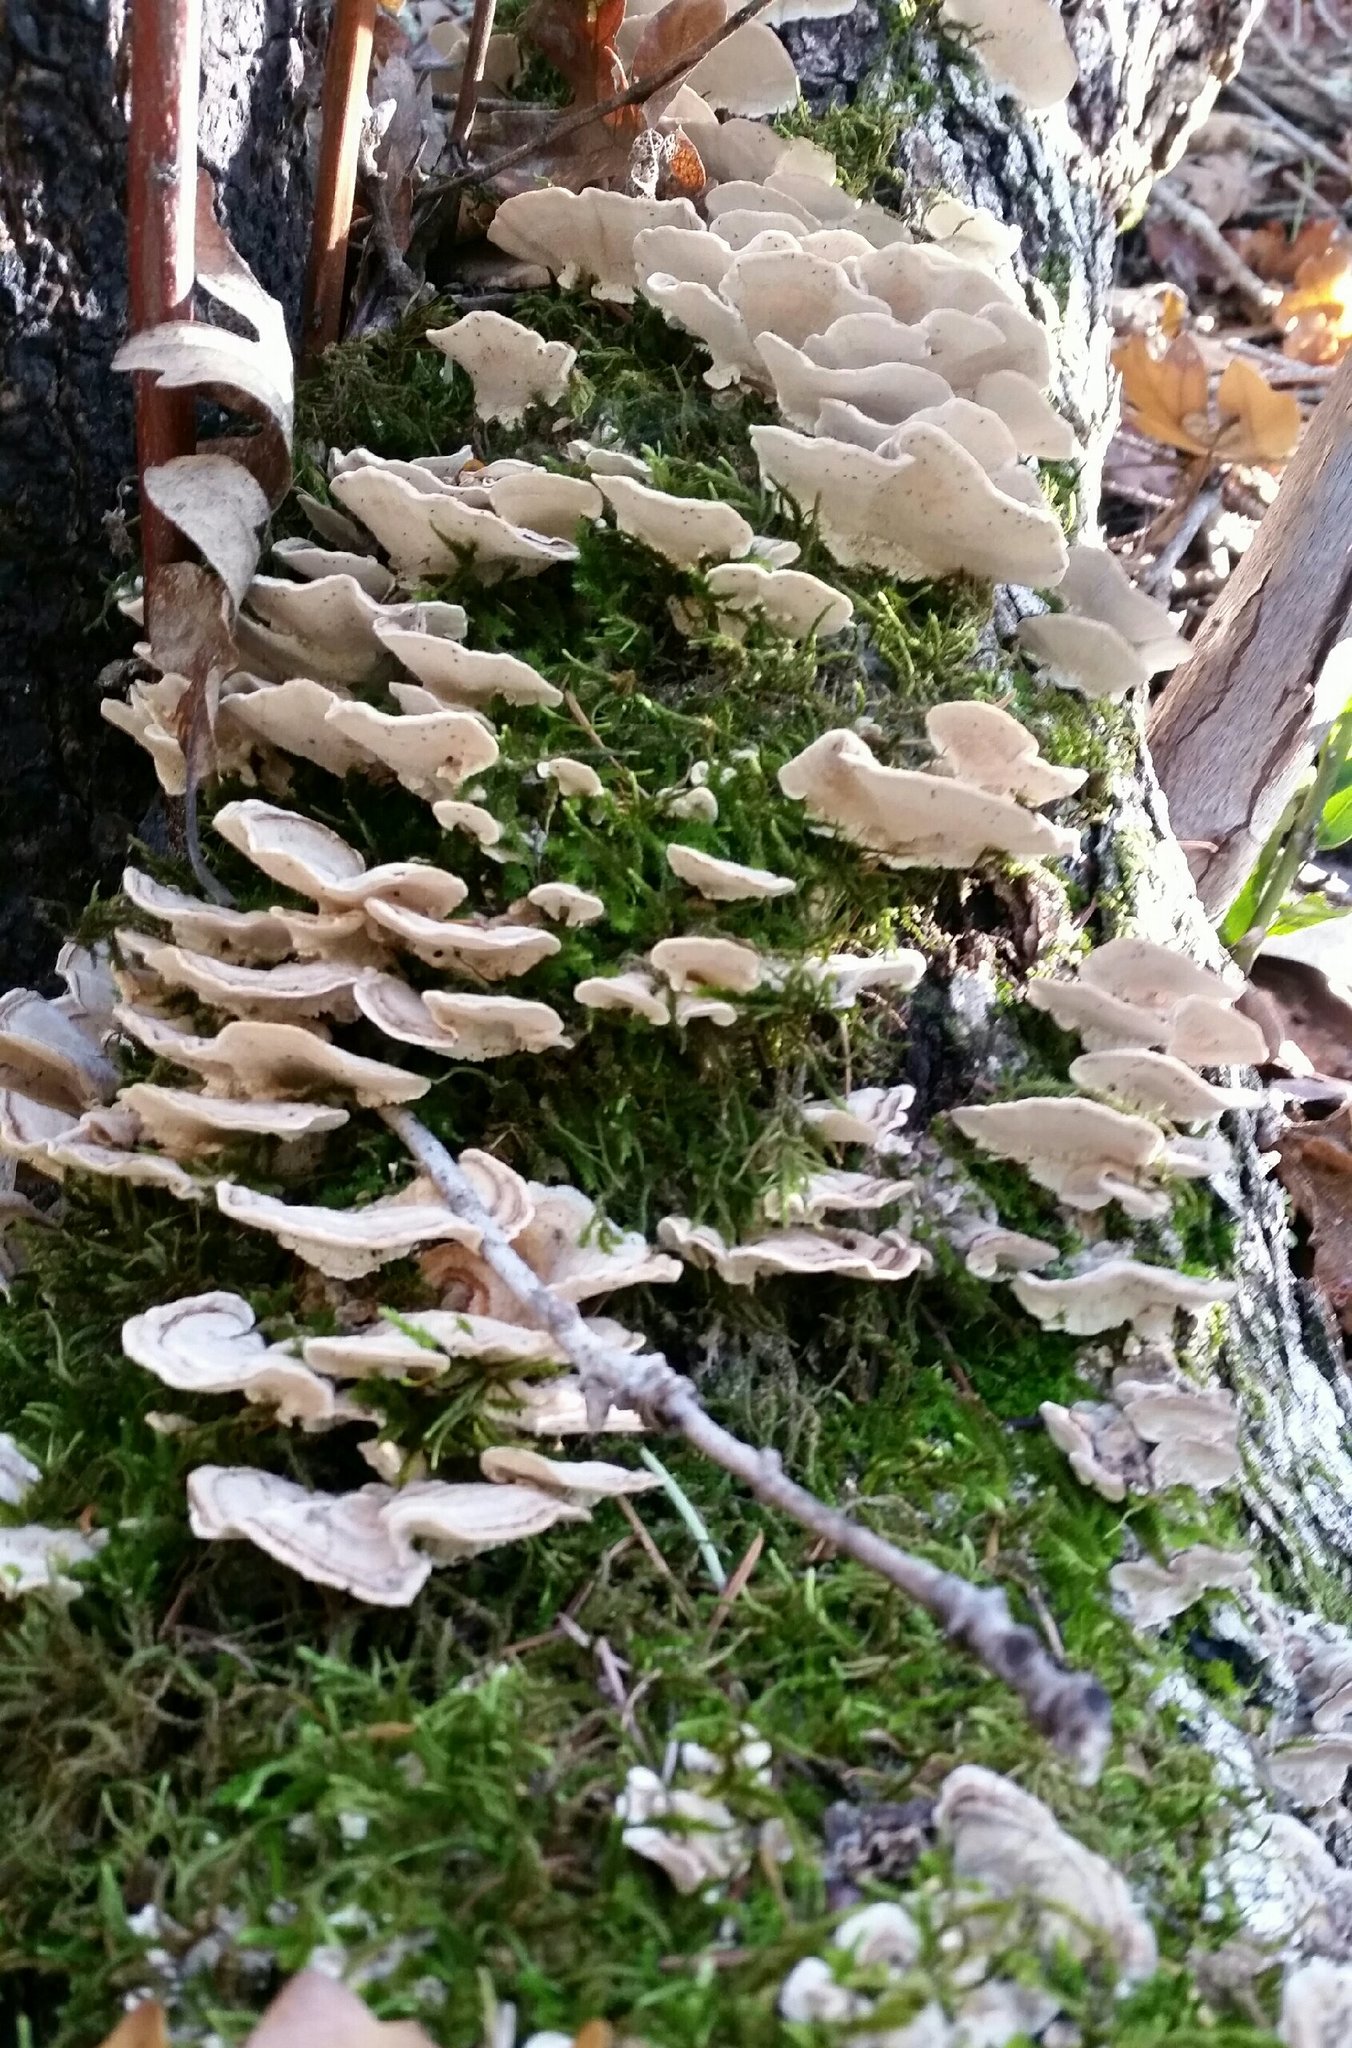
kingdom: Fungi
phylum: Basidiomycota
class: Agaricomycetes
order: Polyporales
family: Polyporaceae
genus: Trametes
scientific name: Trametes versicolor
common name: Turkeytail
